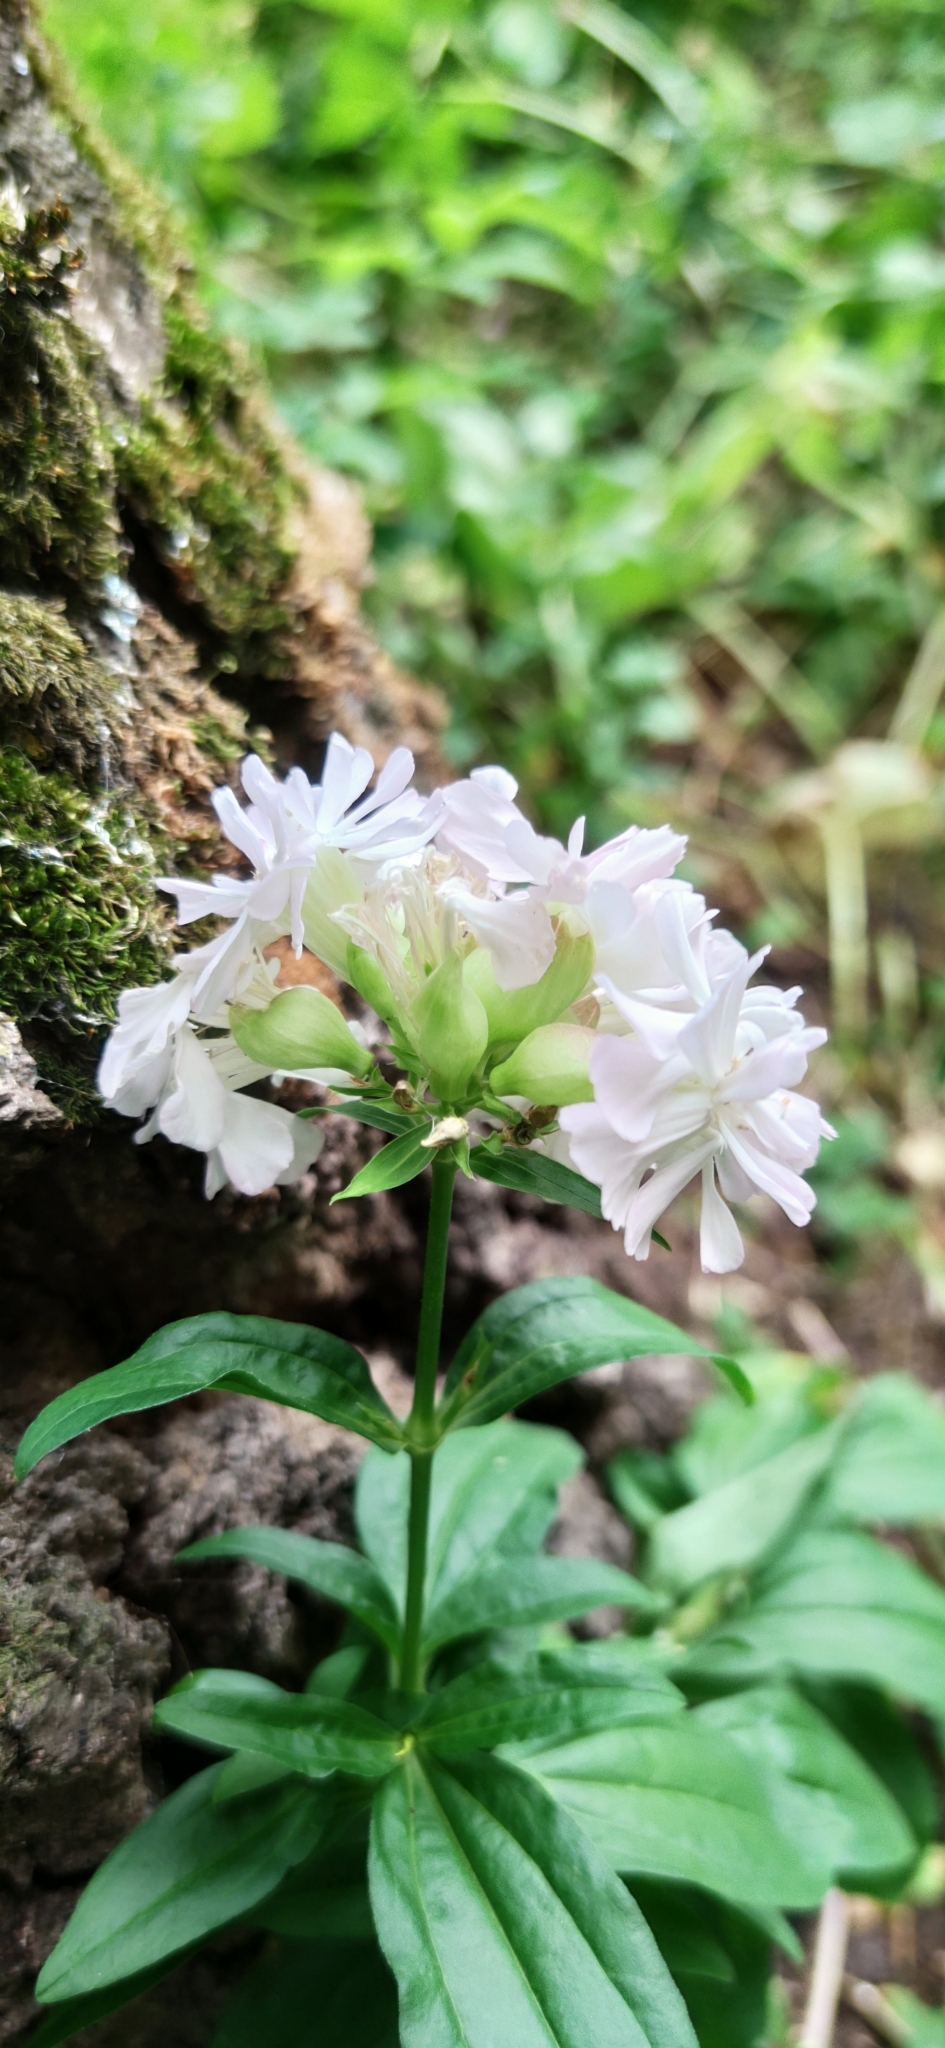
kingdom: Plantae
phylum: Tracheophyta
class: Magnoliopsida
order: Caryophyllales
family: Caryophyllaceae
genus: Saponaria
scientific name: Saponaria officinalis
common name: Soapwort
